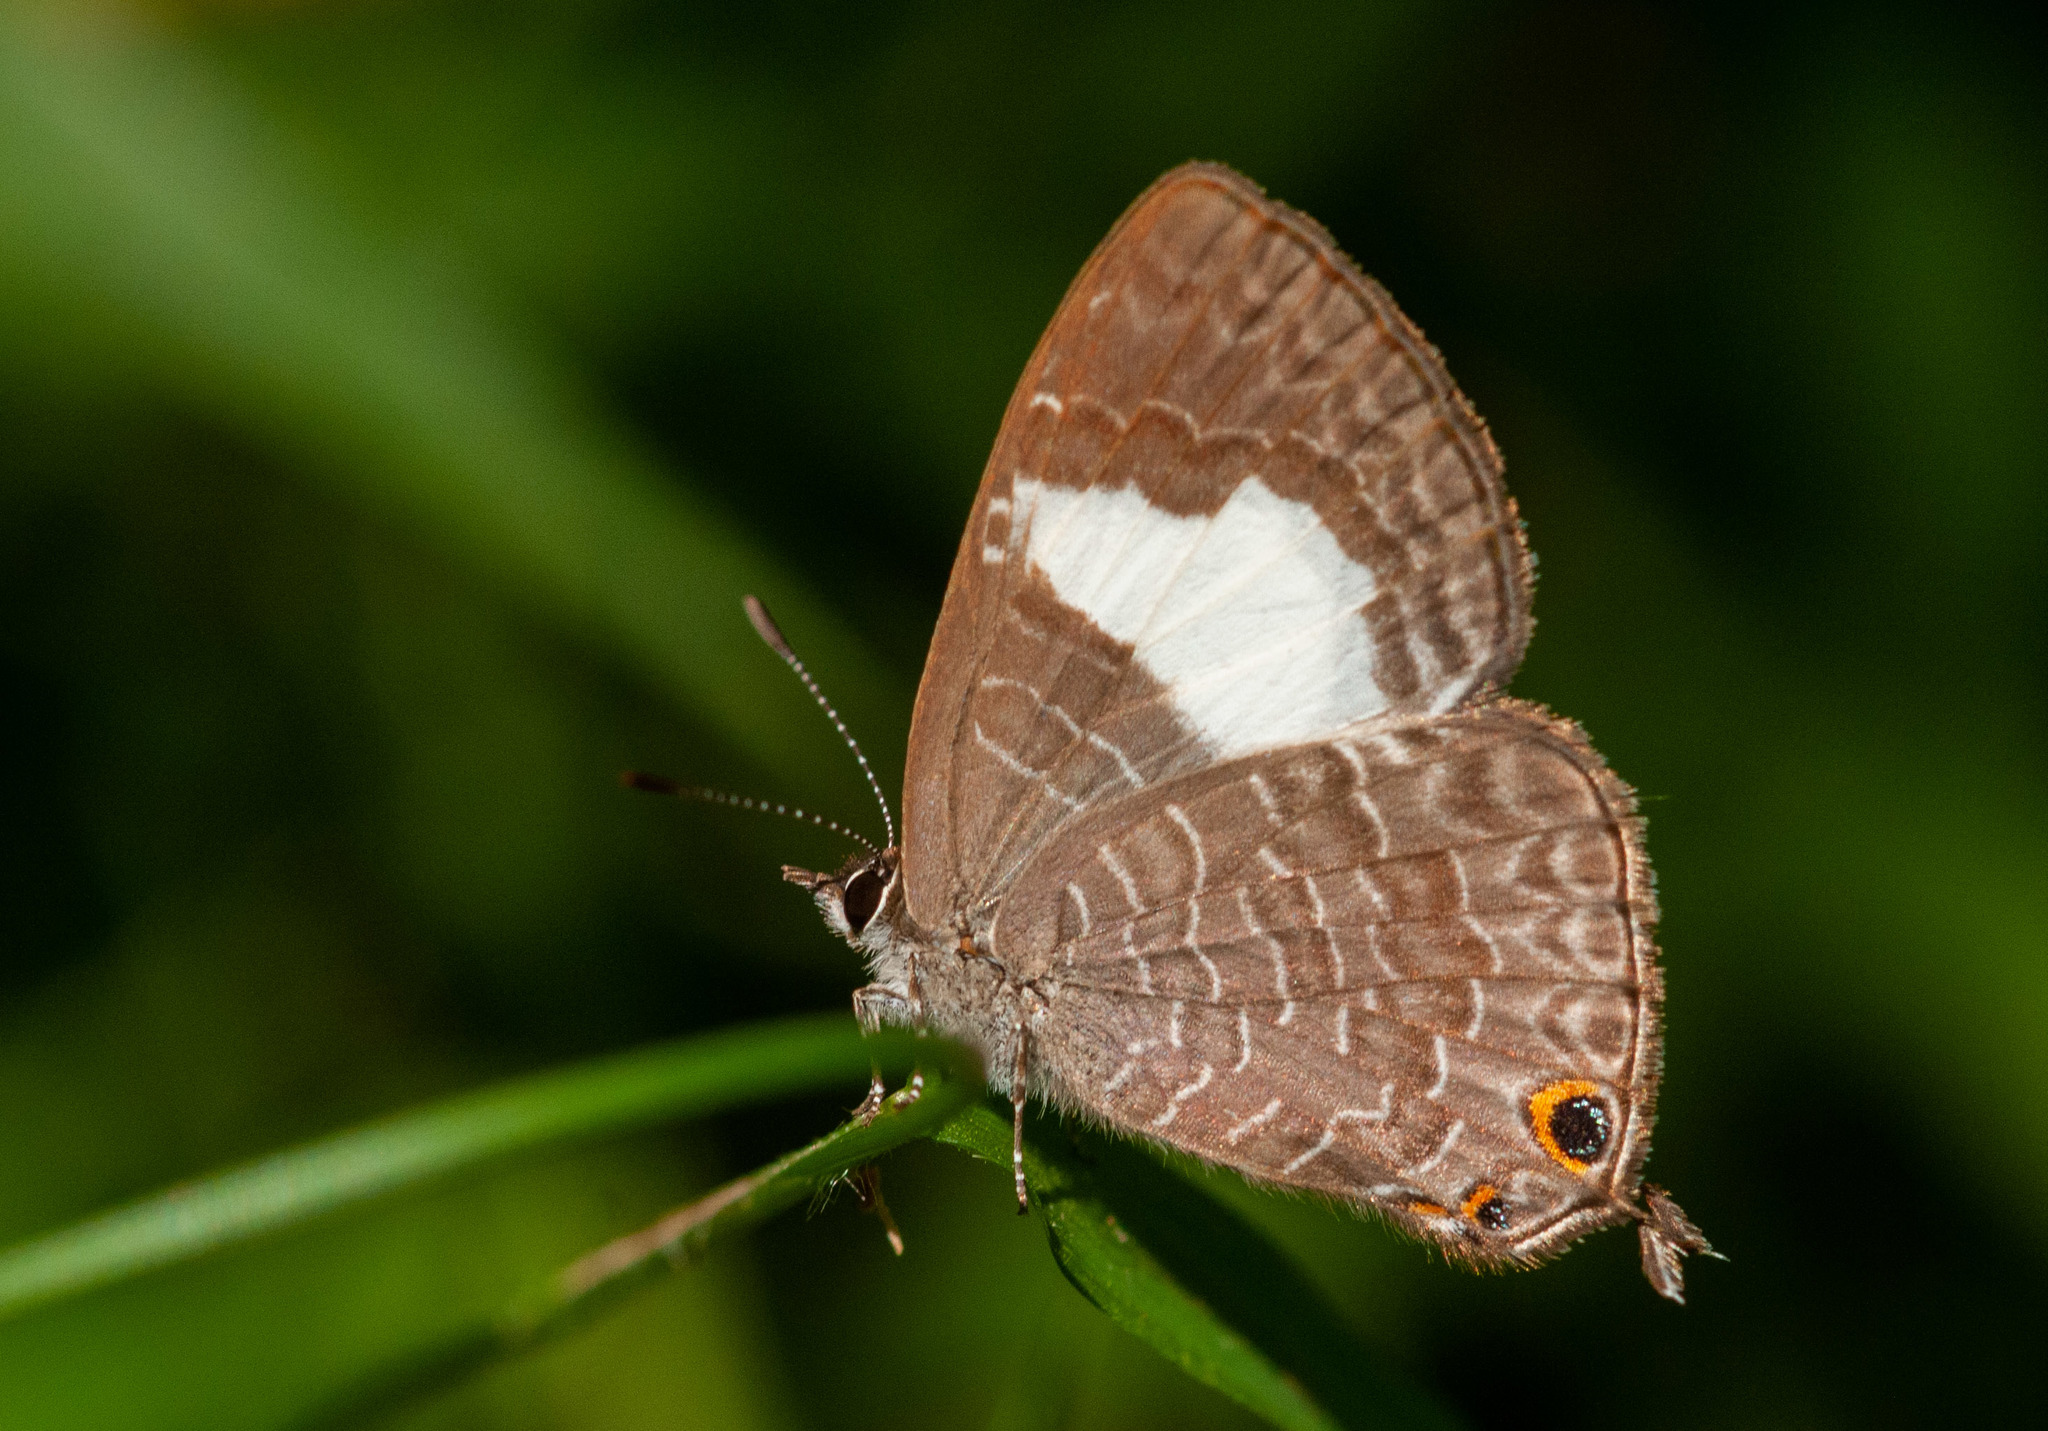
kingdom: Animalia
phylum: Arthropoda
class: Insecta
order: Lepidoptera
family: Lycaenidae
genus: Erysichton
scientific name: Erysichton lineata
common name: Hairy line blue
